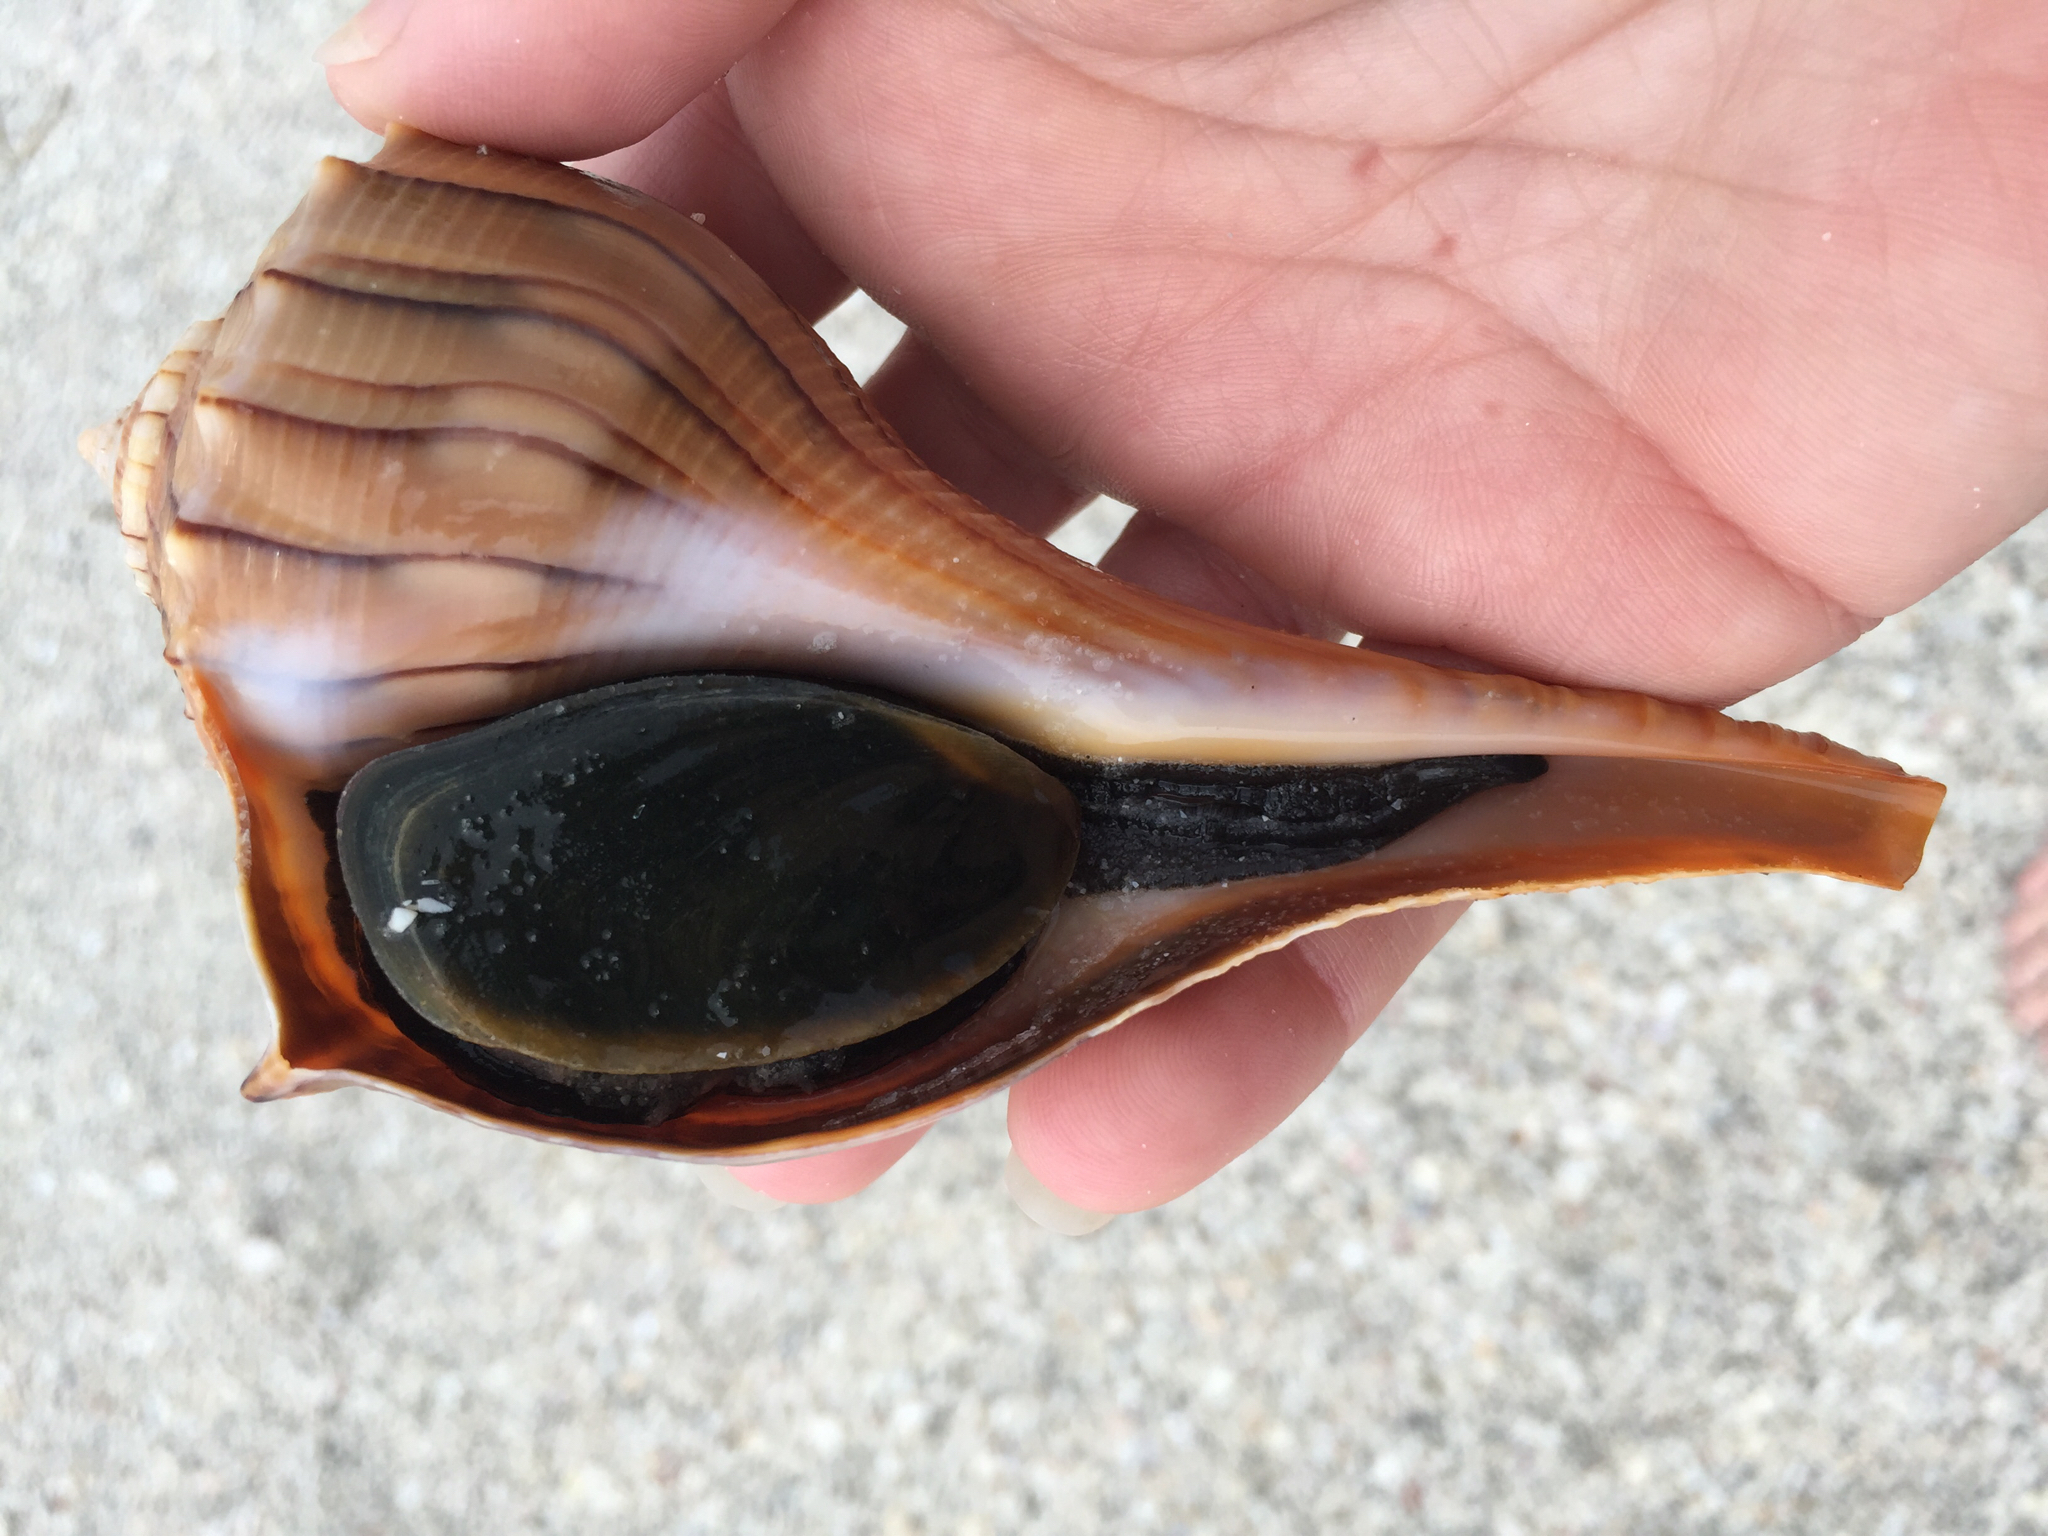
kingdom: Animalia
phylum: Mollusca
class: Gastropoda
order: Neogastropoda
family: Busyconidae
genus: Sinistrofulgur
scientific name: Sinistrofulgur sinistrum
